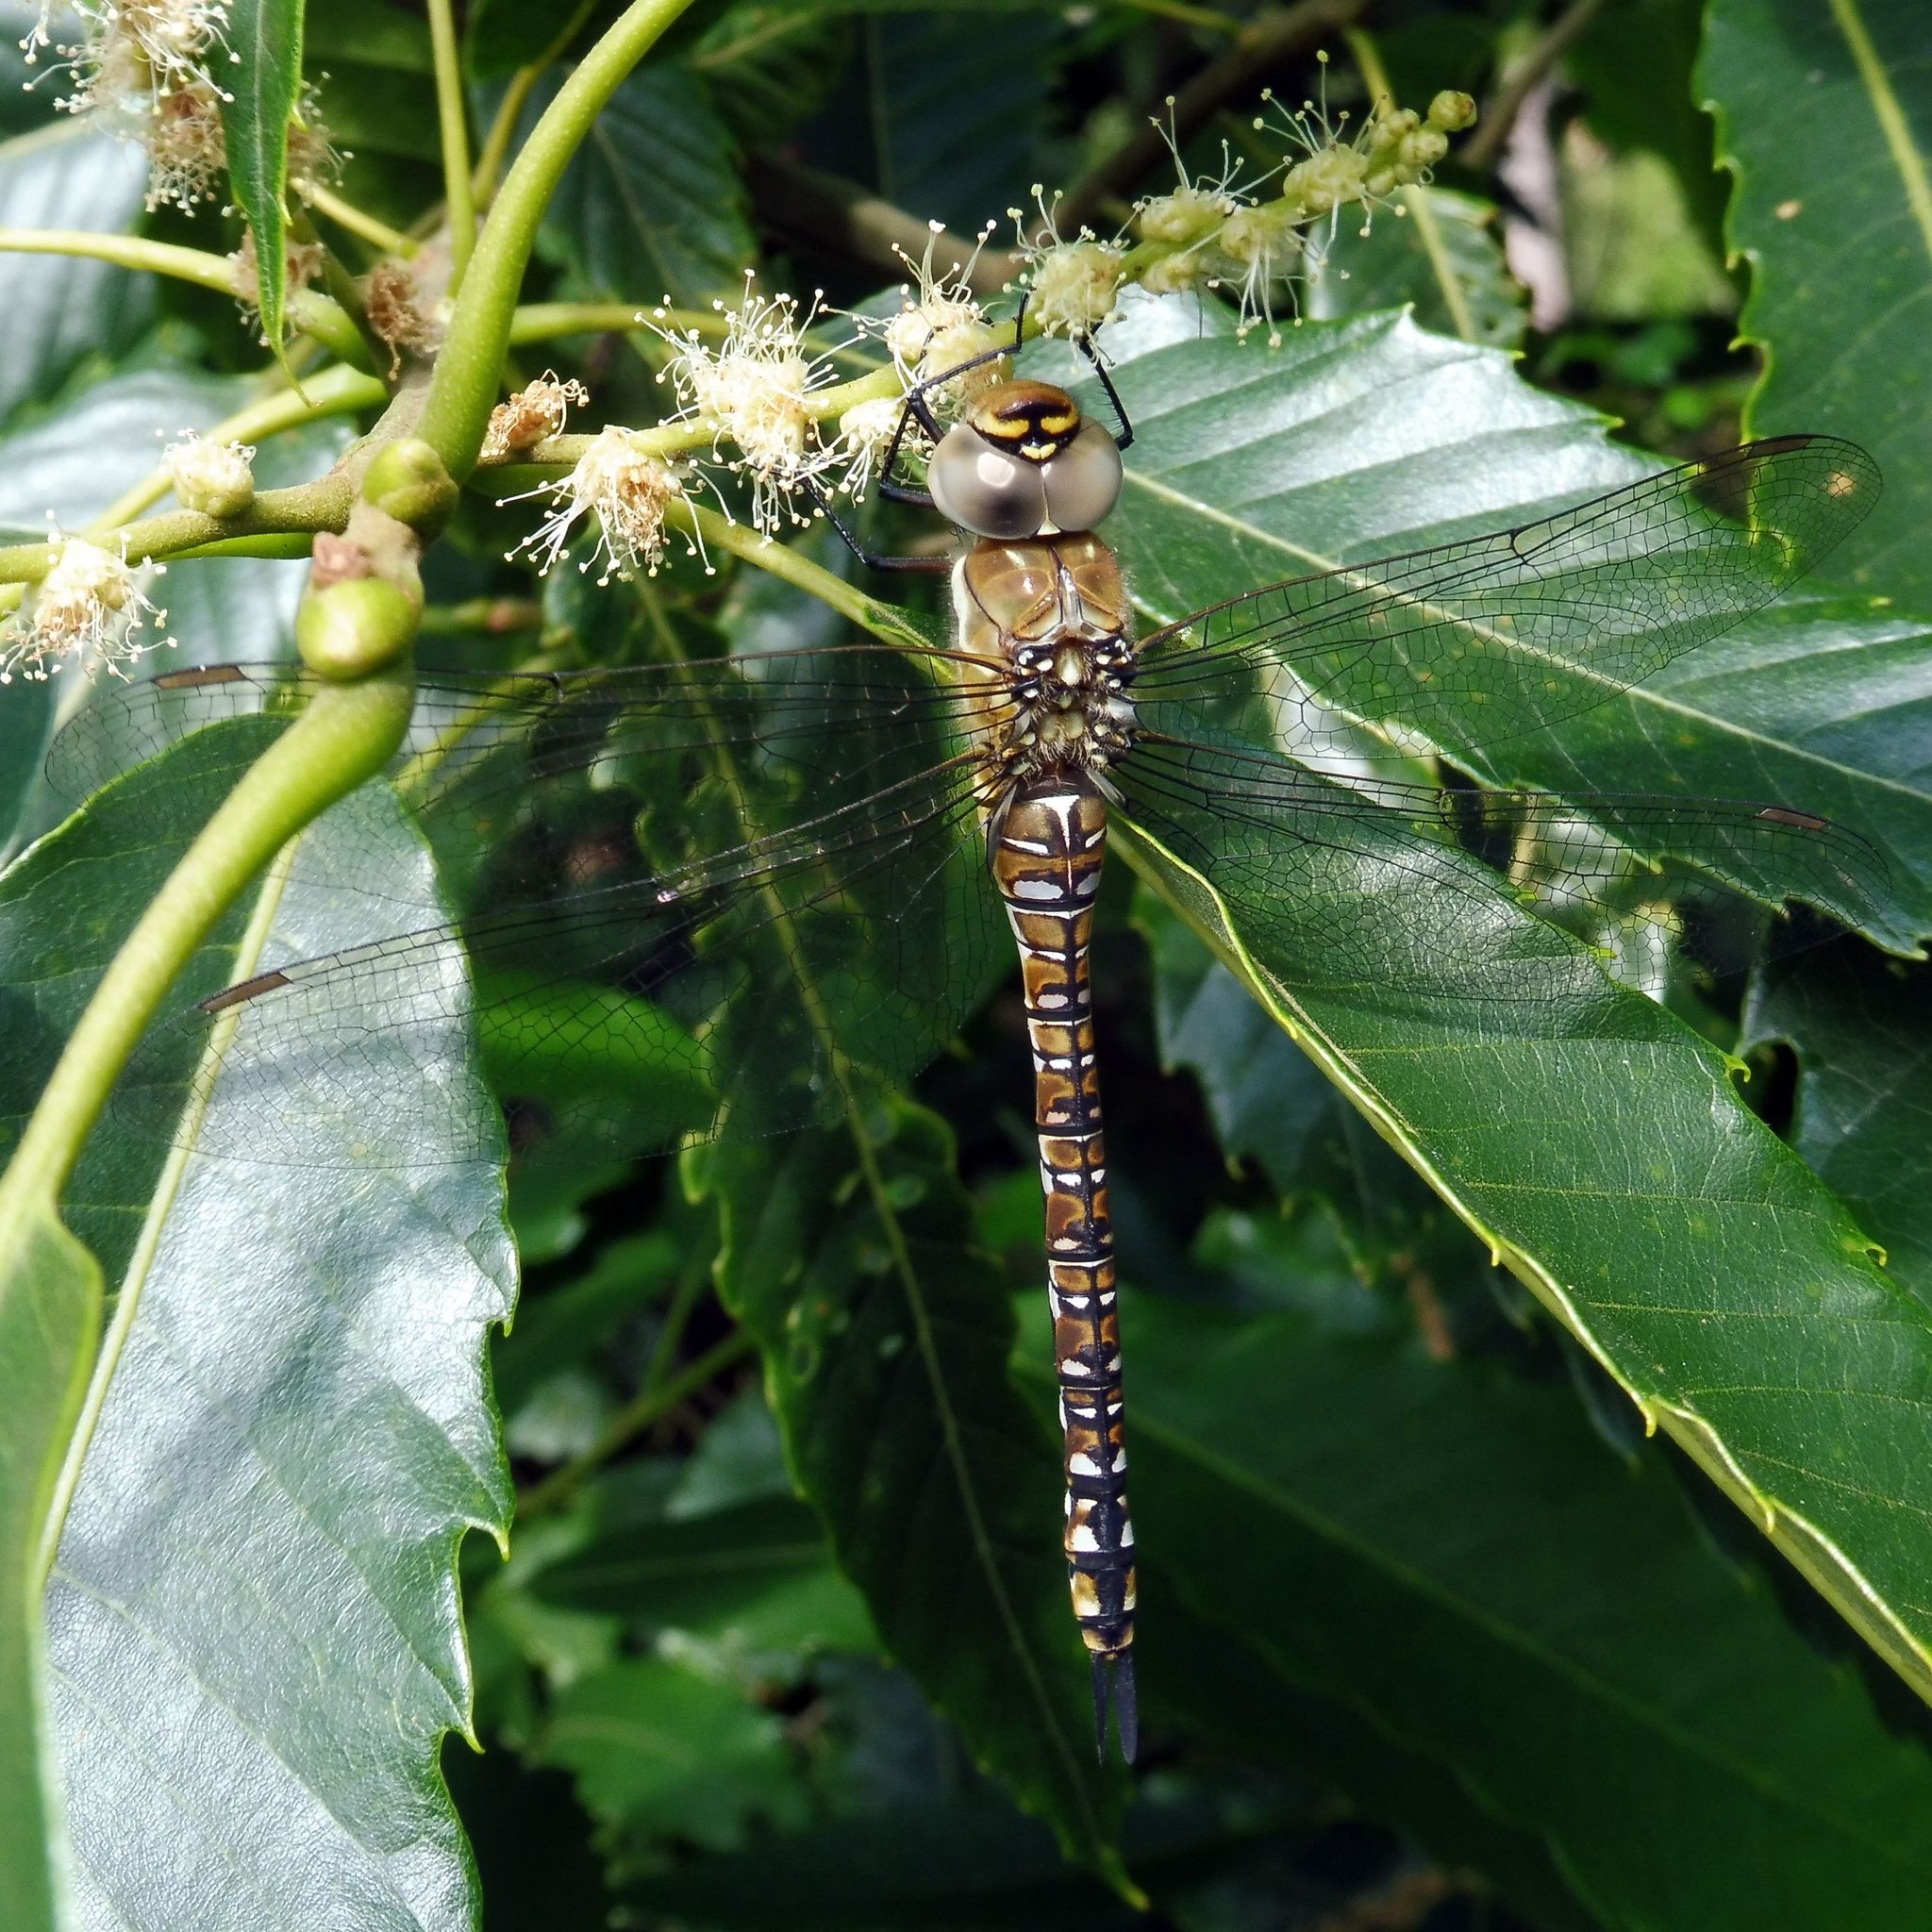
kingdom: Animalia
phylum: Arthropoda
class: Insecta
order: Odonata
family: Aeshnidae
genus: Aeshna
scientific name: Aeshna mixta
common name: Migrant hawker
